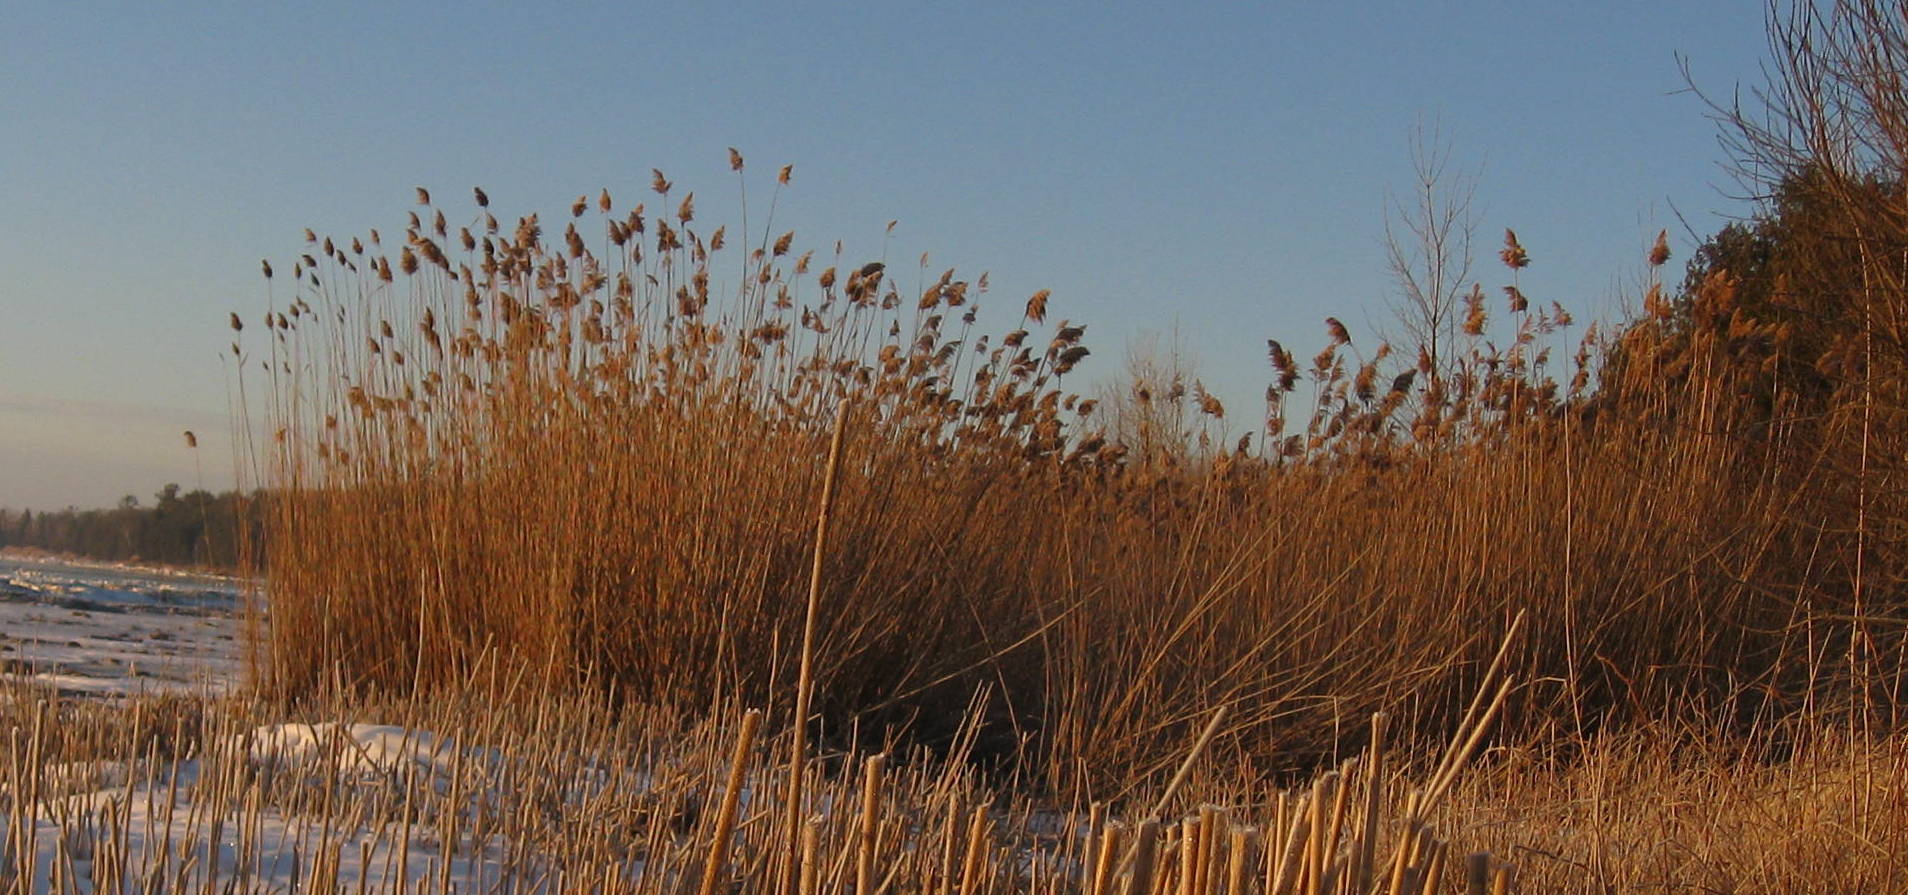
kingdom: Plantae
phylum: Tracheophyta
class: Liliopsida
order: Poales
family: Poaceae
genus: Phragmites
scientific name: Phragmites australis
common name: Common reed
